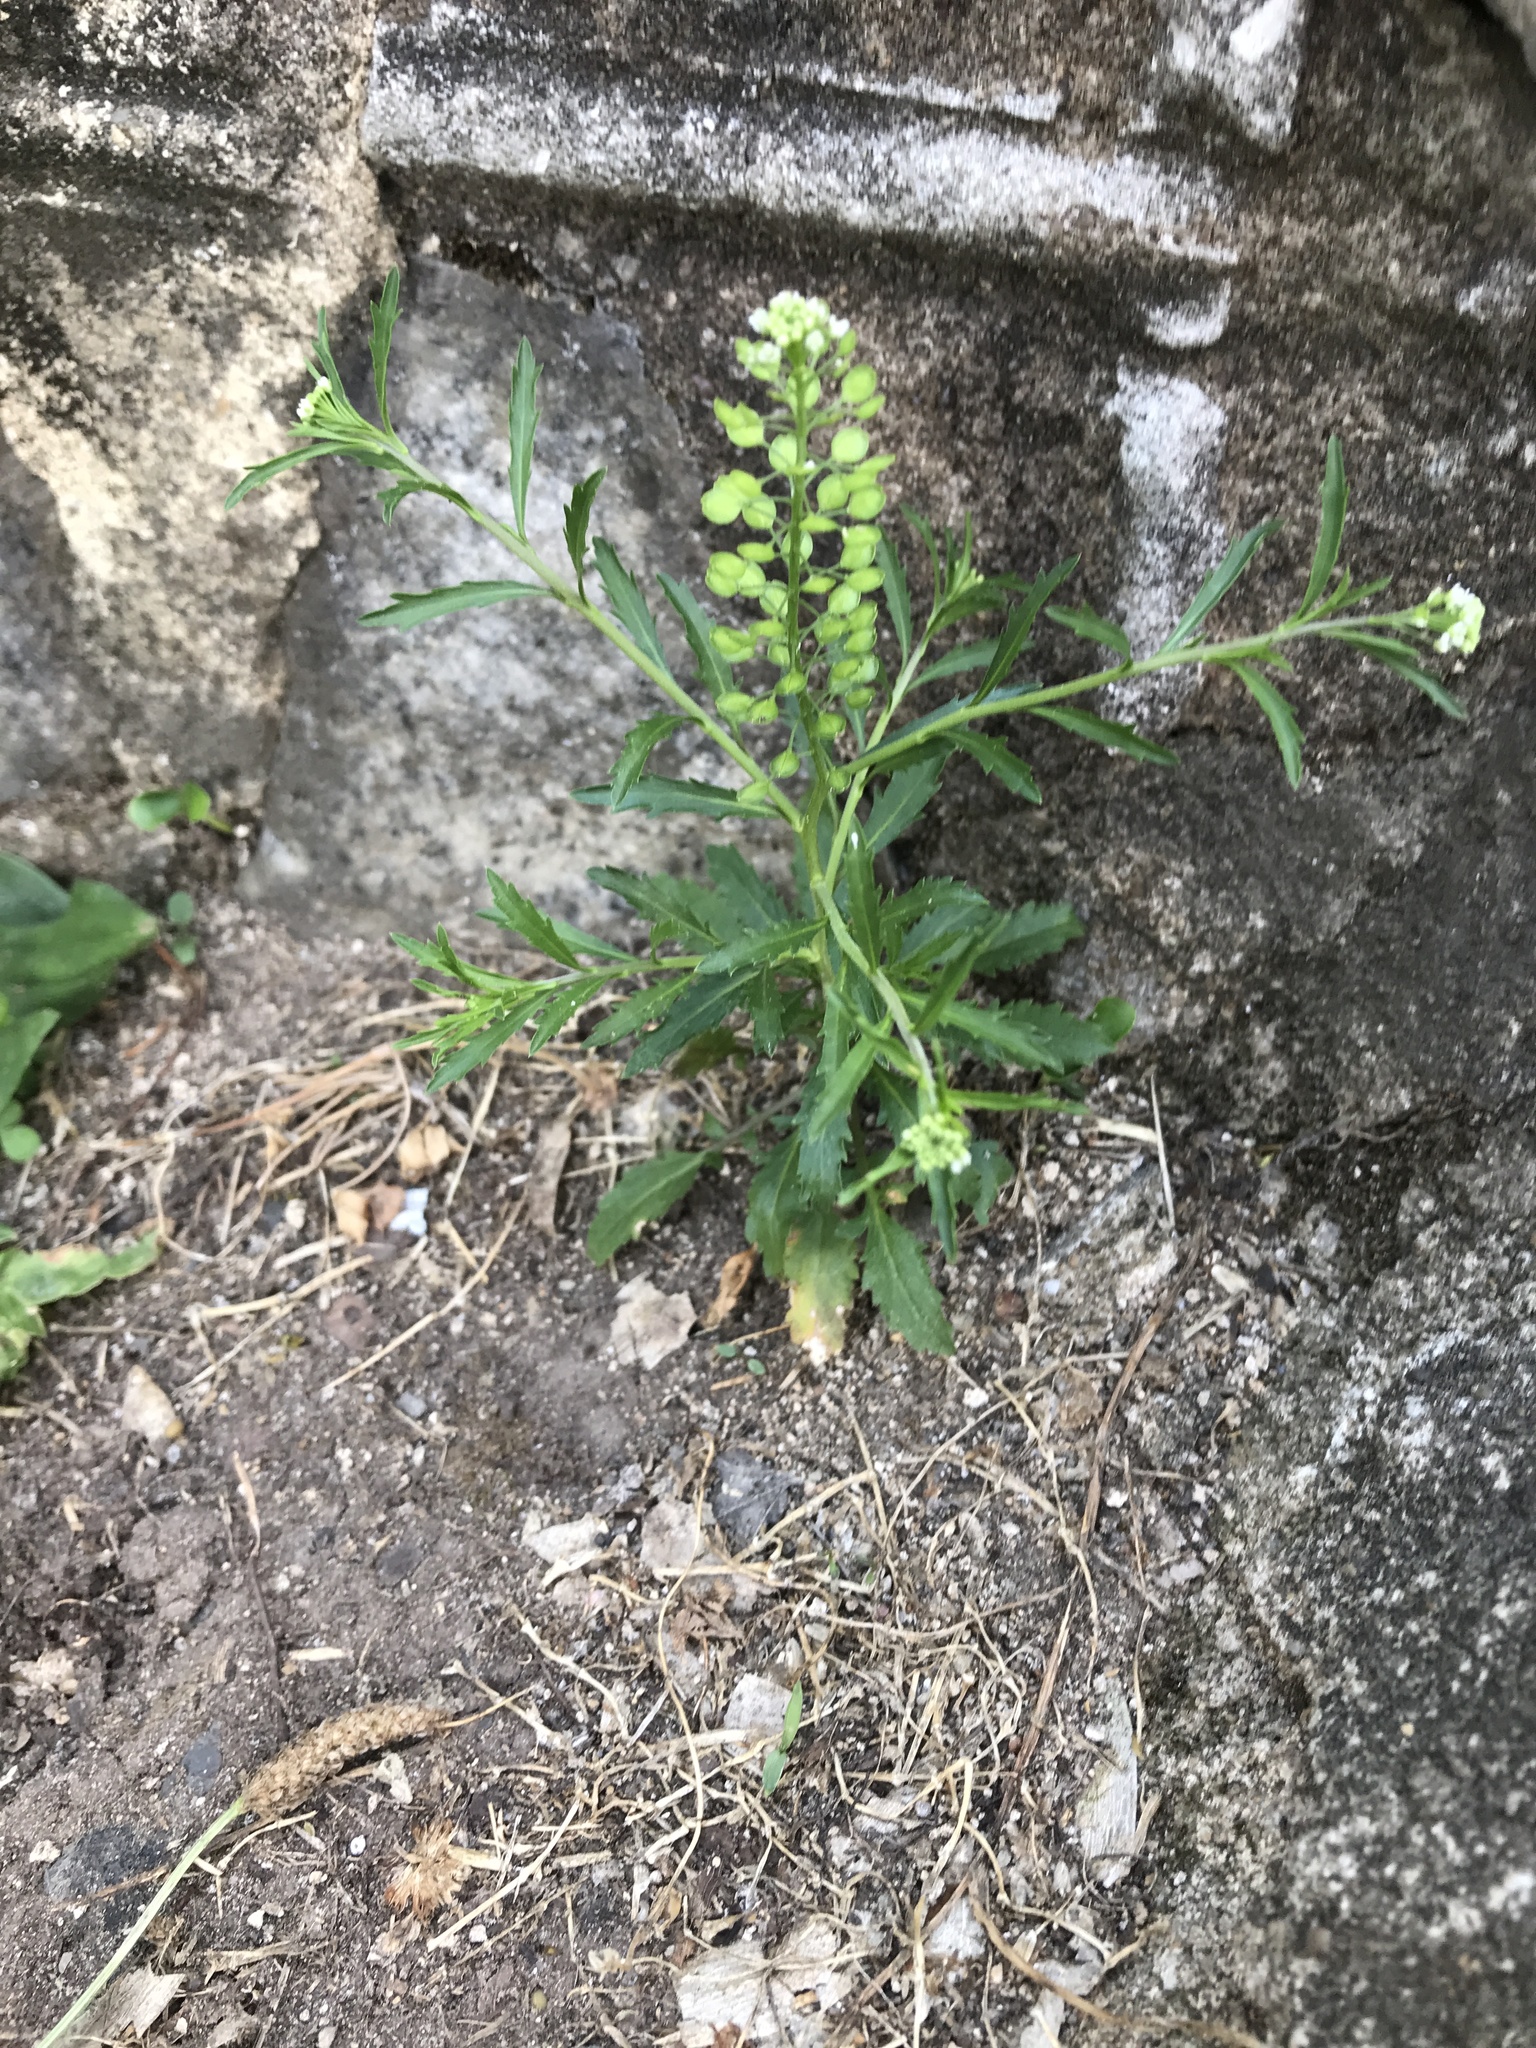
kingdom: Plantae
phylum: Tracheophyta
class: Magnoliopsida
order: Brassicales
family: Brassicaceae
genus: Lepidium
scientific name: Lepidium virginicum
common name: Least pepperwort
